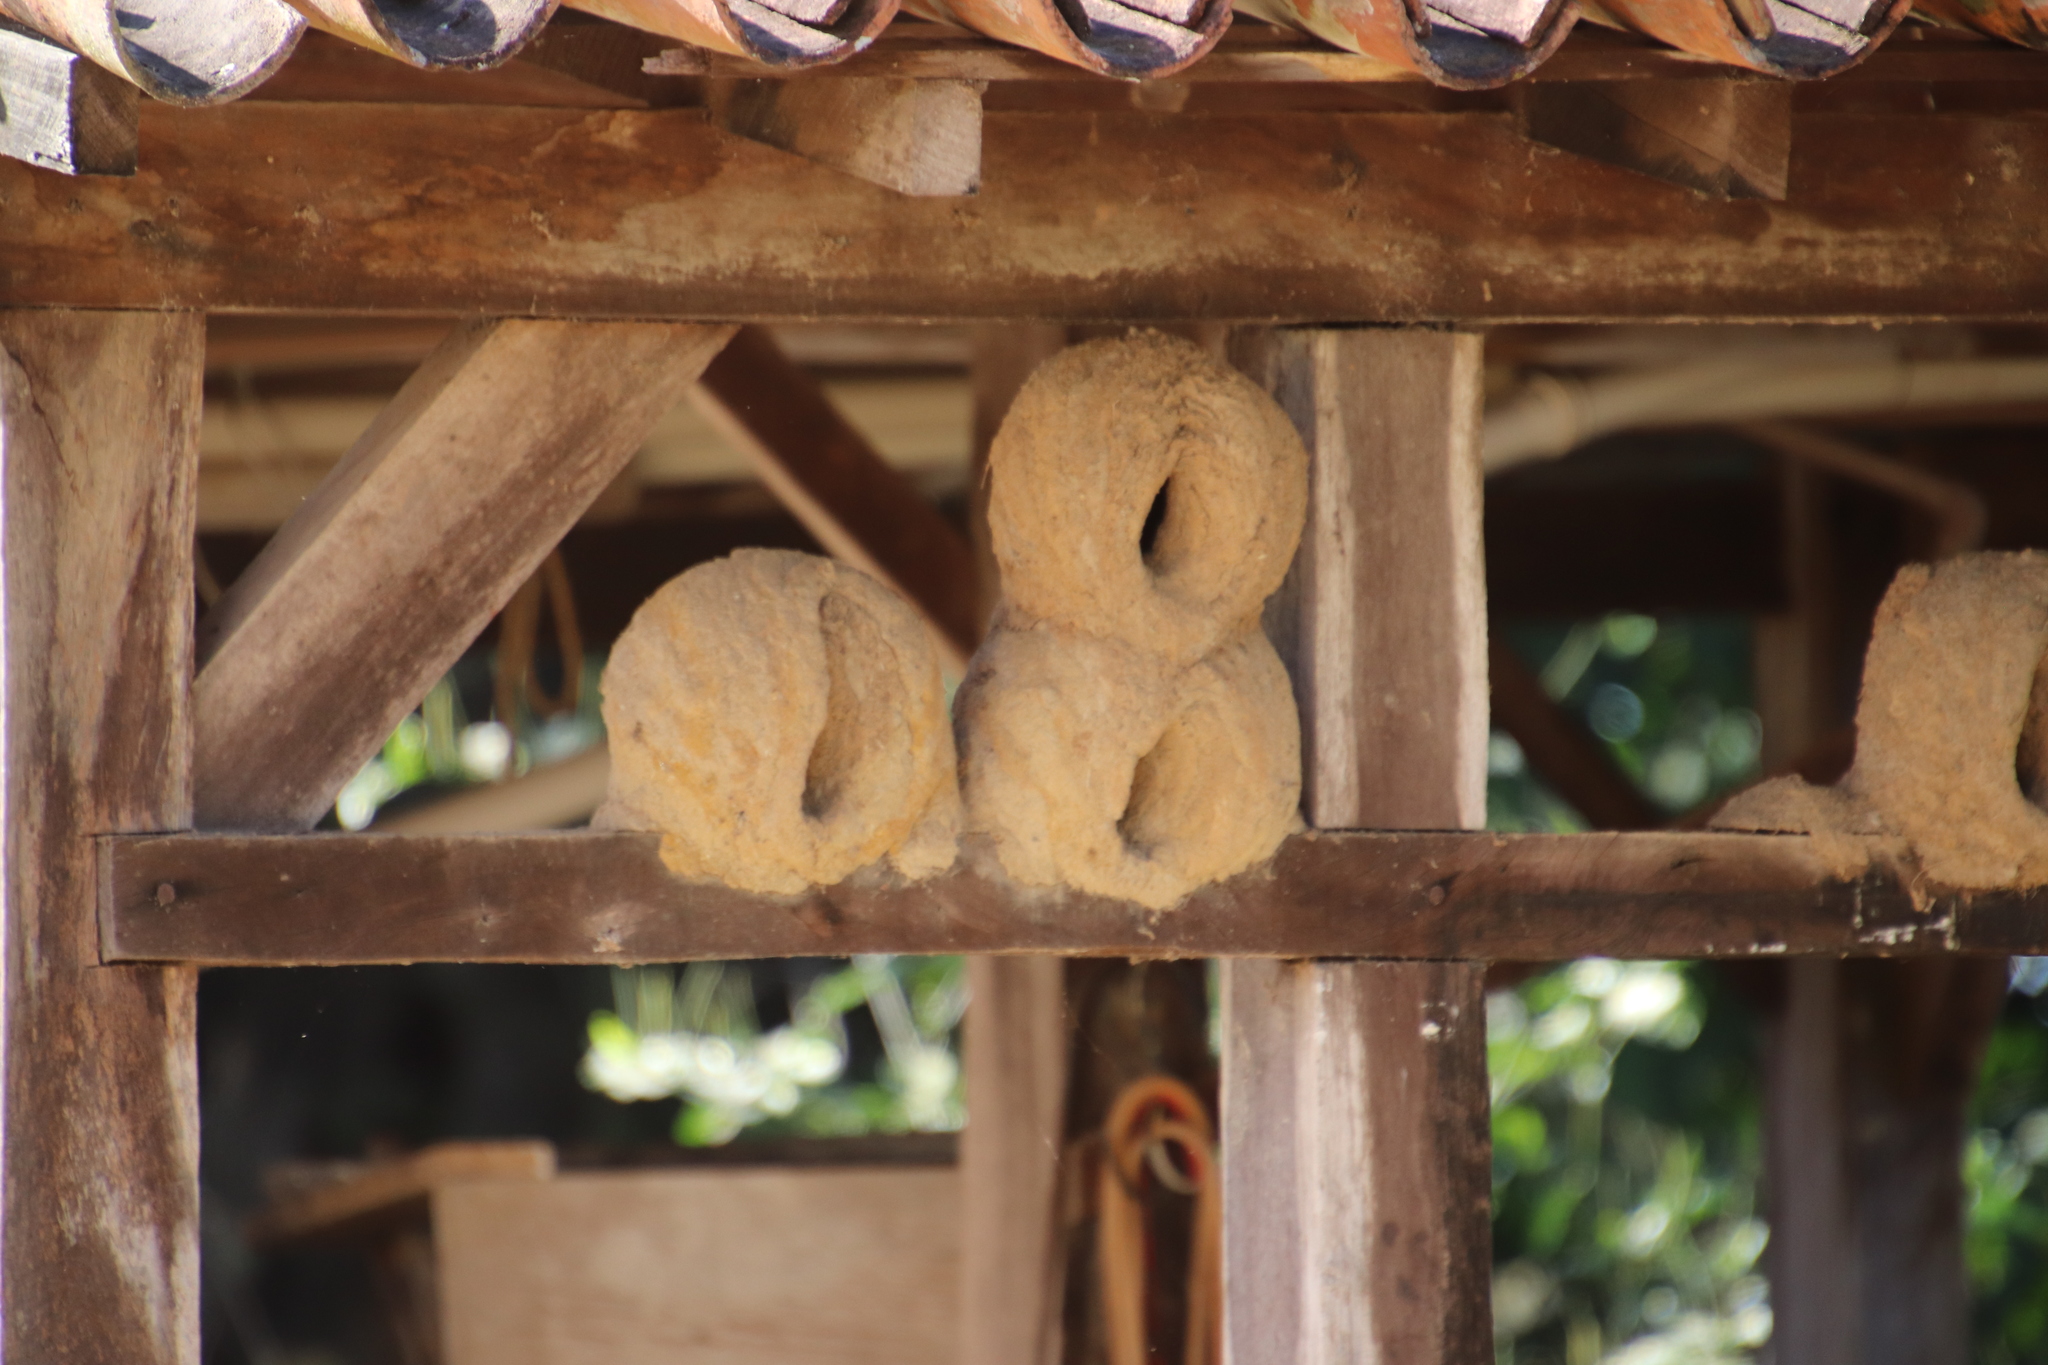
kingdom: Animalia
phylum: Chordata
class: Aves
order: Passeriformes
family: Furnariidae
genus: Furnarius
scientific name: Furnarius rufus
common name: Rufous hornero
